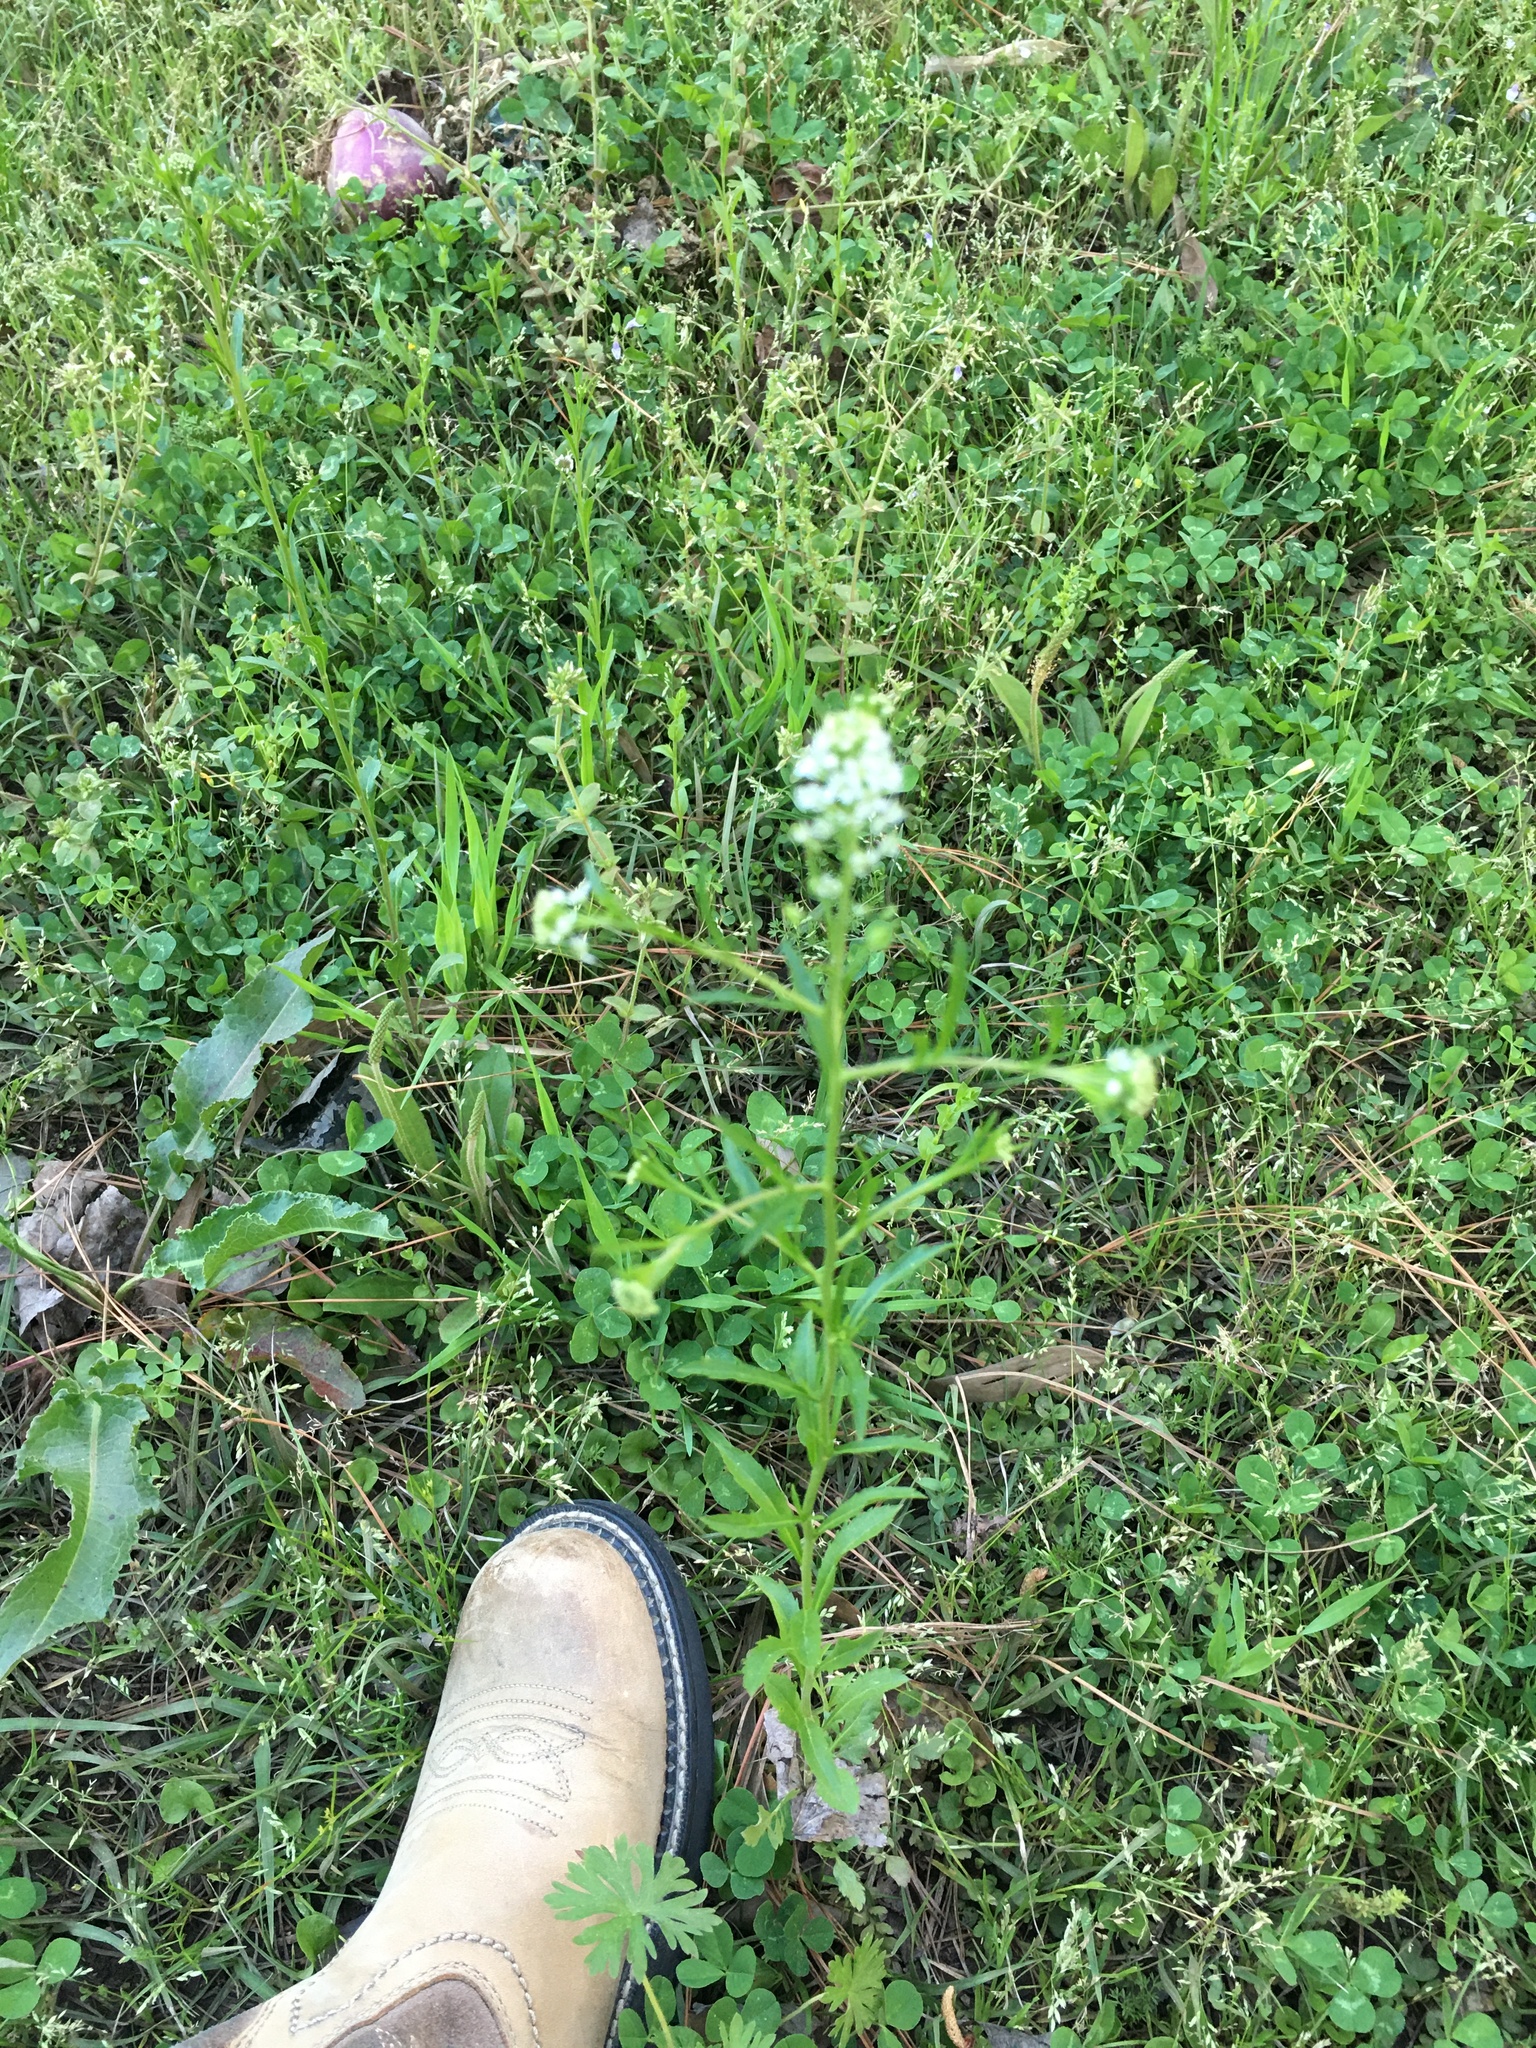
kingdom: Plantae
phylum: Tracheophyta
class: Magnoliopsida
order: Brassicales
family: Brassicaceae
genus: Lepidium
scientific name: Lepidium virginicum
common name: Least pepperwort
